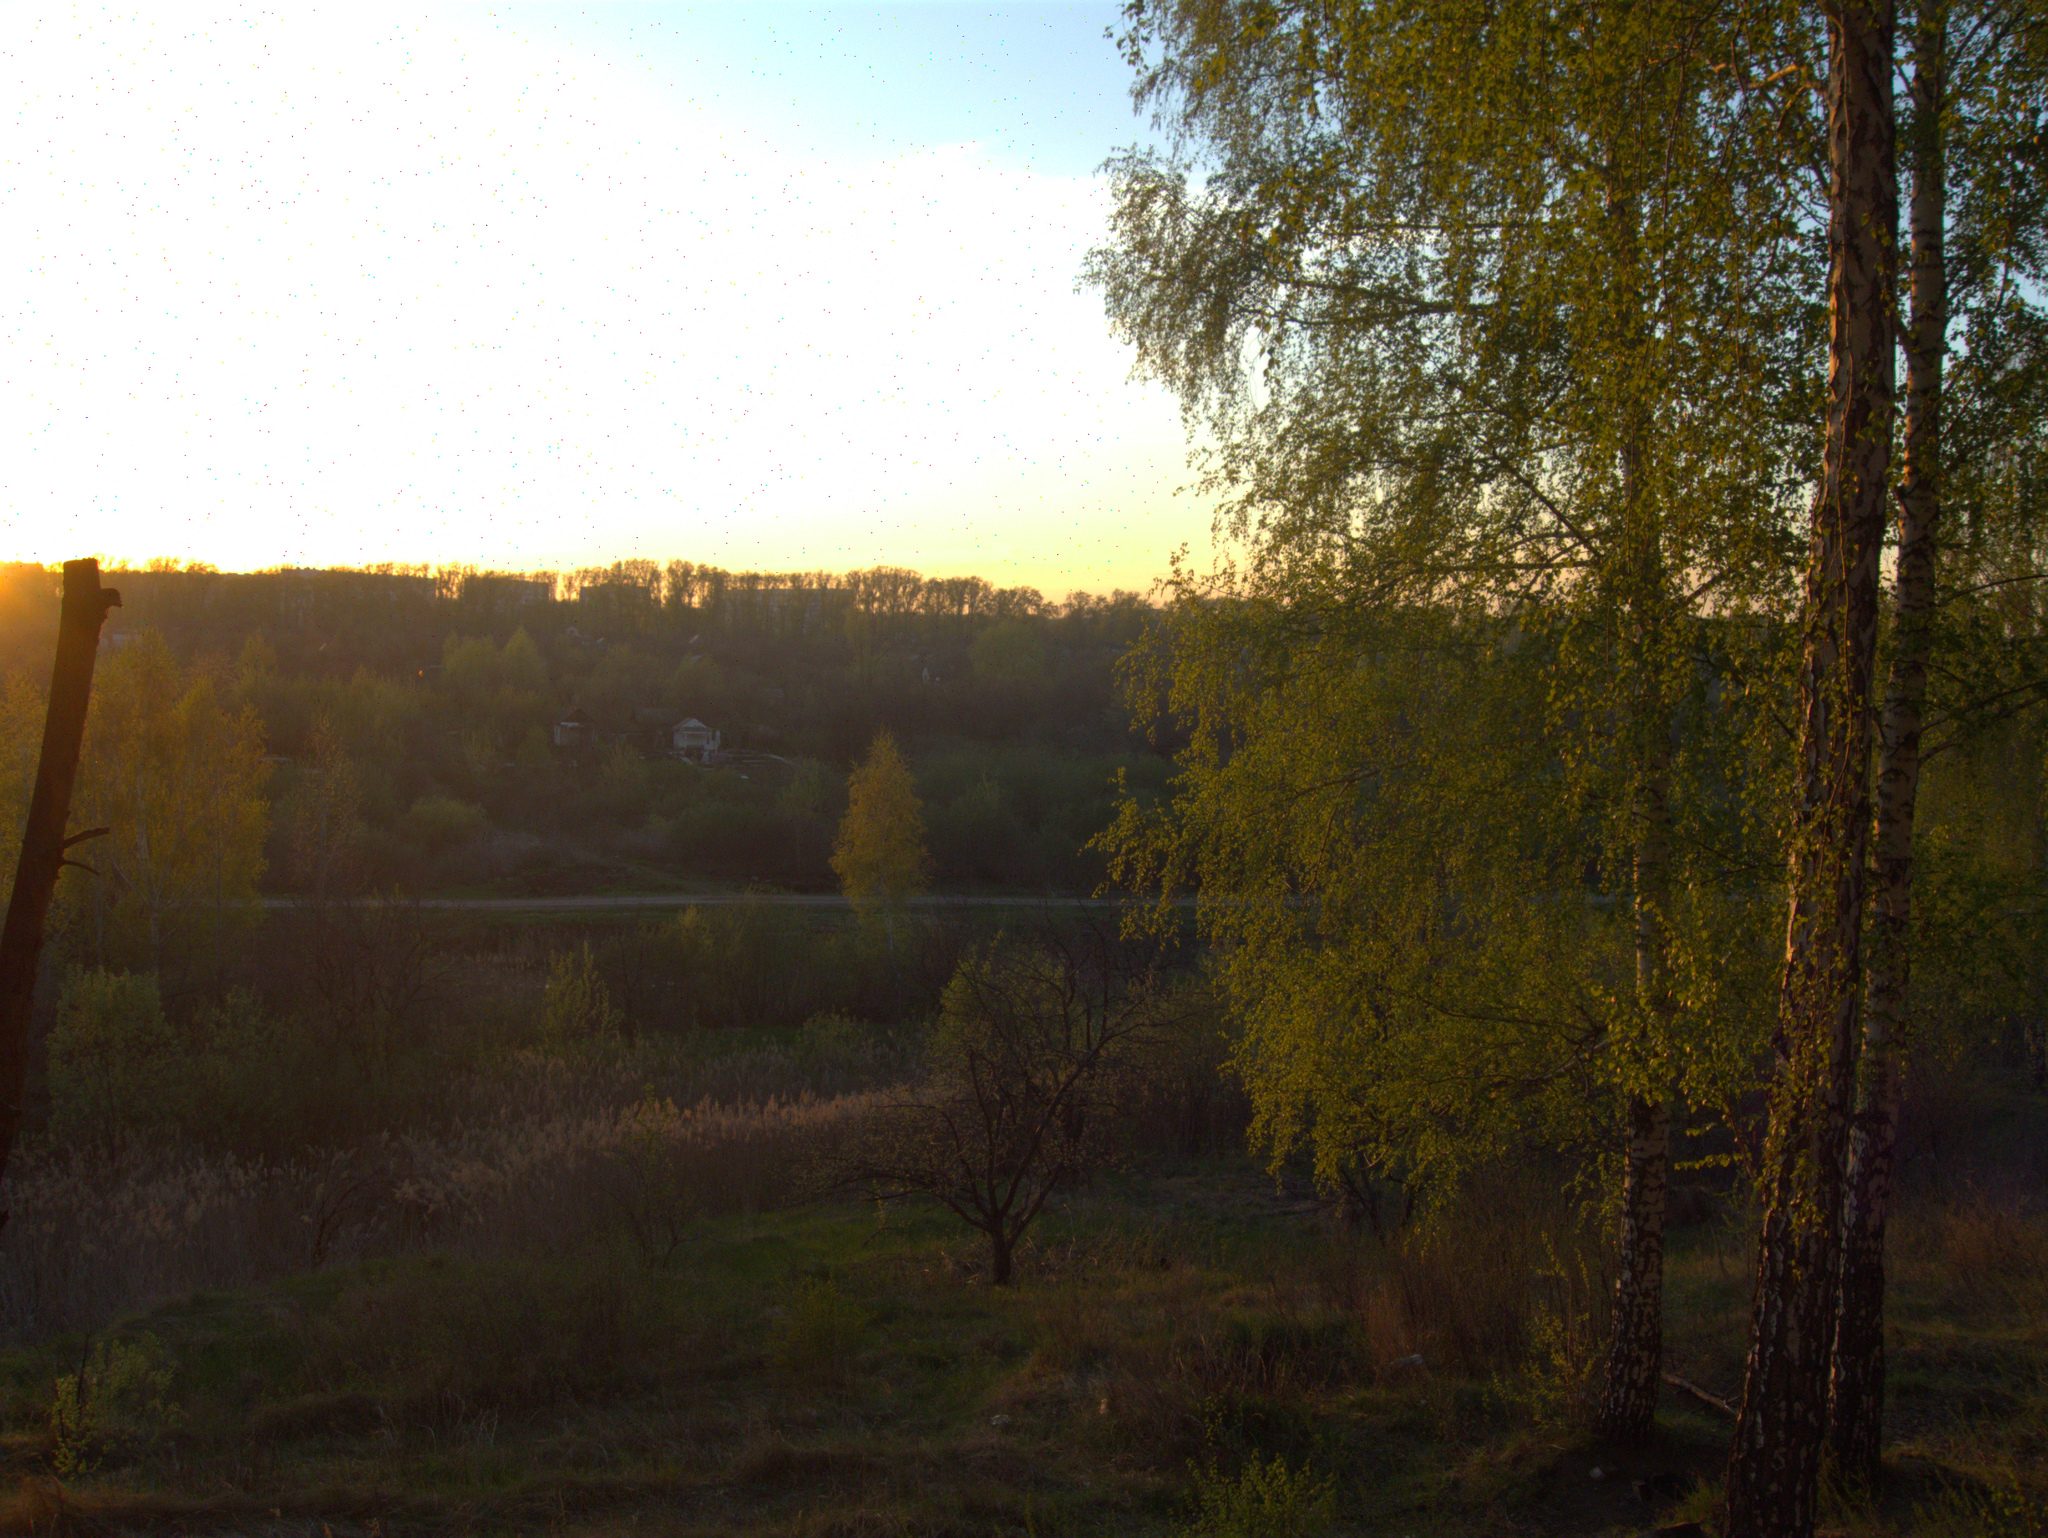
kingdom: Plantae
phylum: Tracheophyta
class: Magnoliopsida
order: Fagales
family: Betulaceae
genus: Betula
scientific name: Betula pendula
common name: Silver birch
